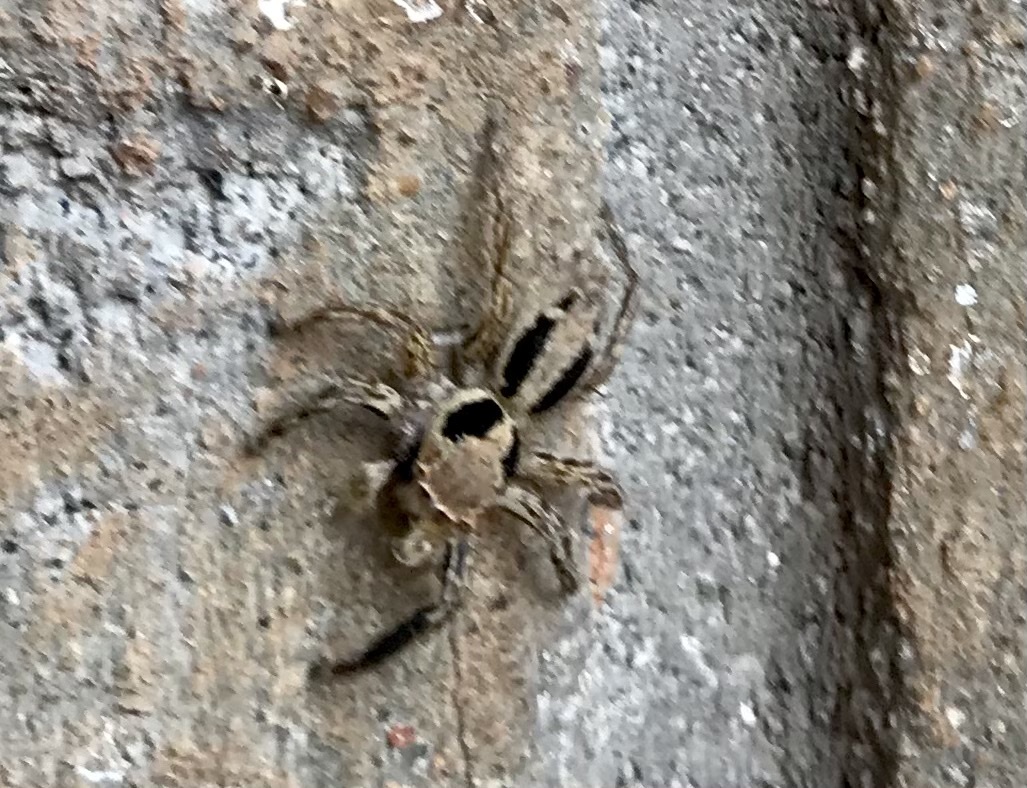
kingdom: Animalia
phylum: Arthropoda
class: Arachnida
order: Araneae
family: Salticidae
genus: Plexippus
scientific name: Plexippus petersi
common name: Jumping spider
